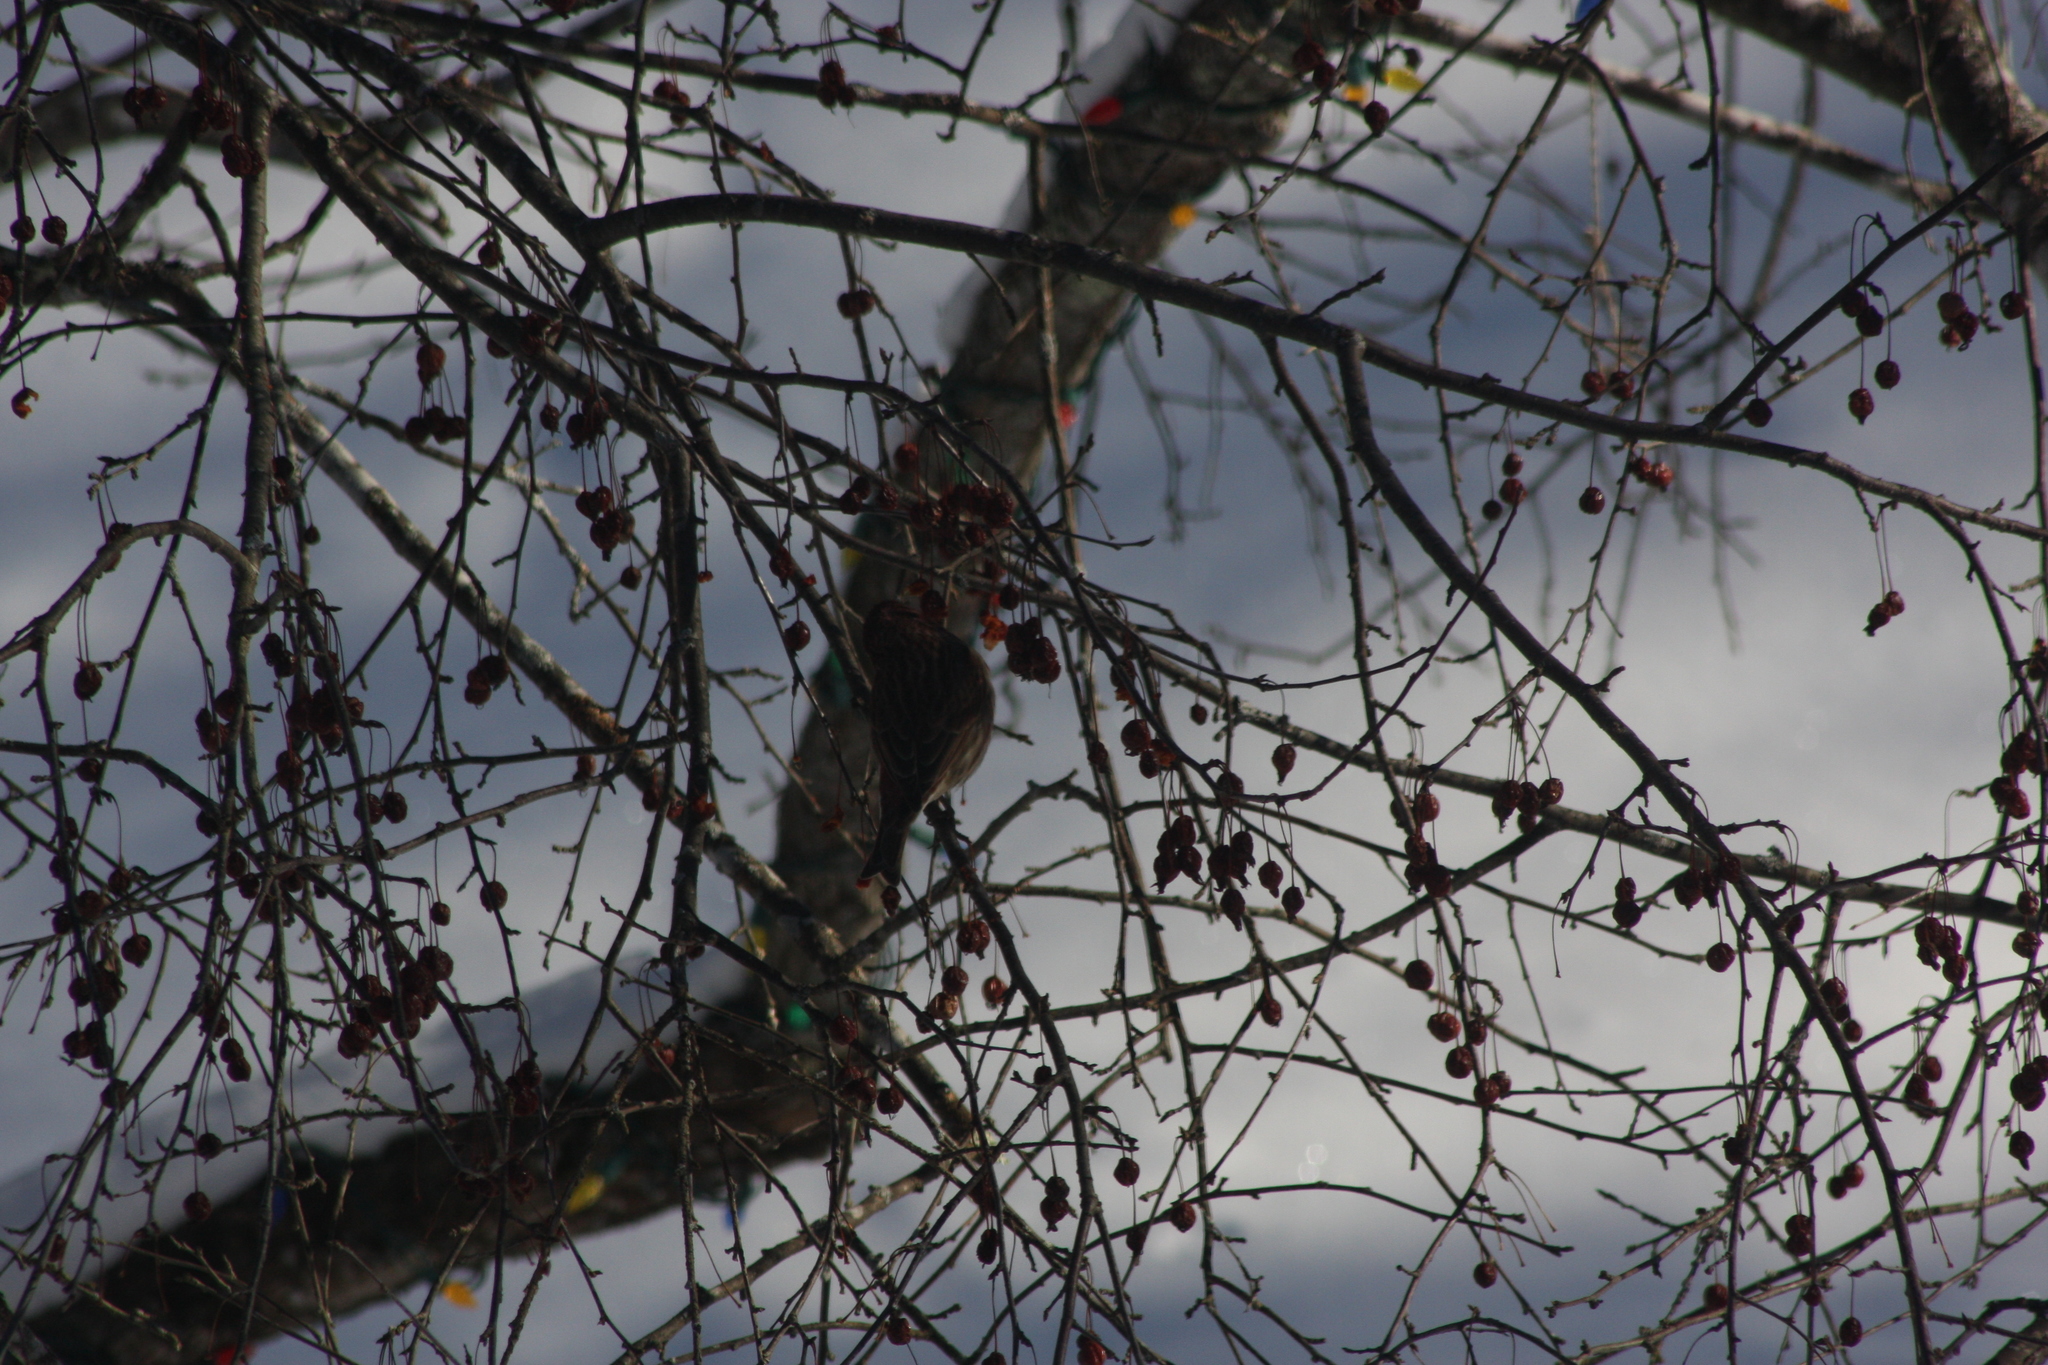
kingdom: Animalia
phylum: Chordata
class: Aves
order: Passeriformes
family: Fringillidae
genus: Haemorhous
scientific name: Haemorhous purpureus
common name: Purple finch
